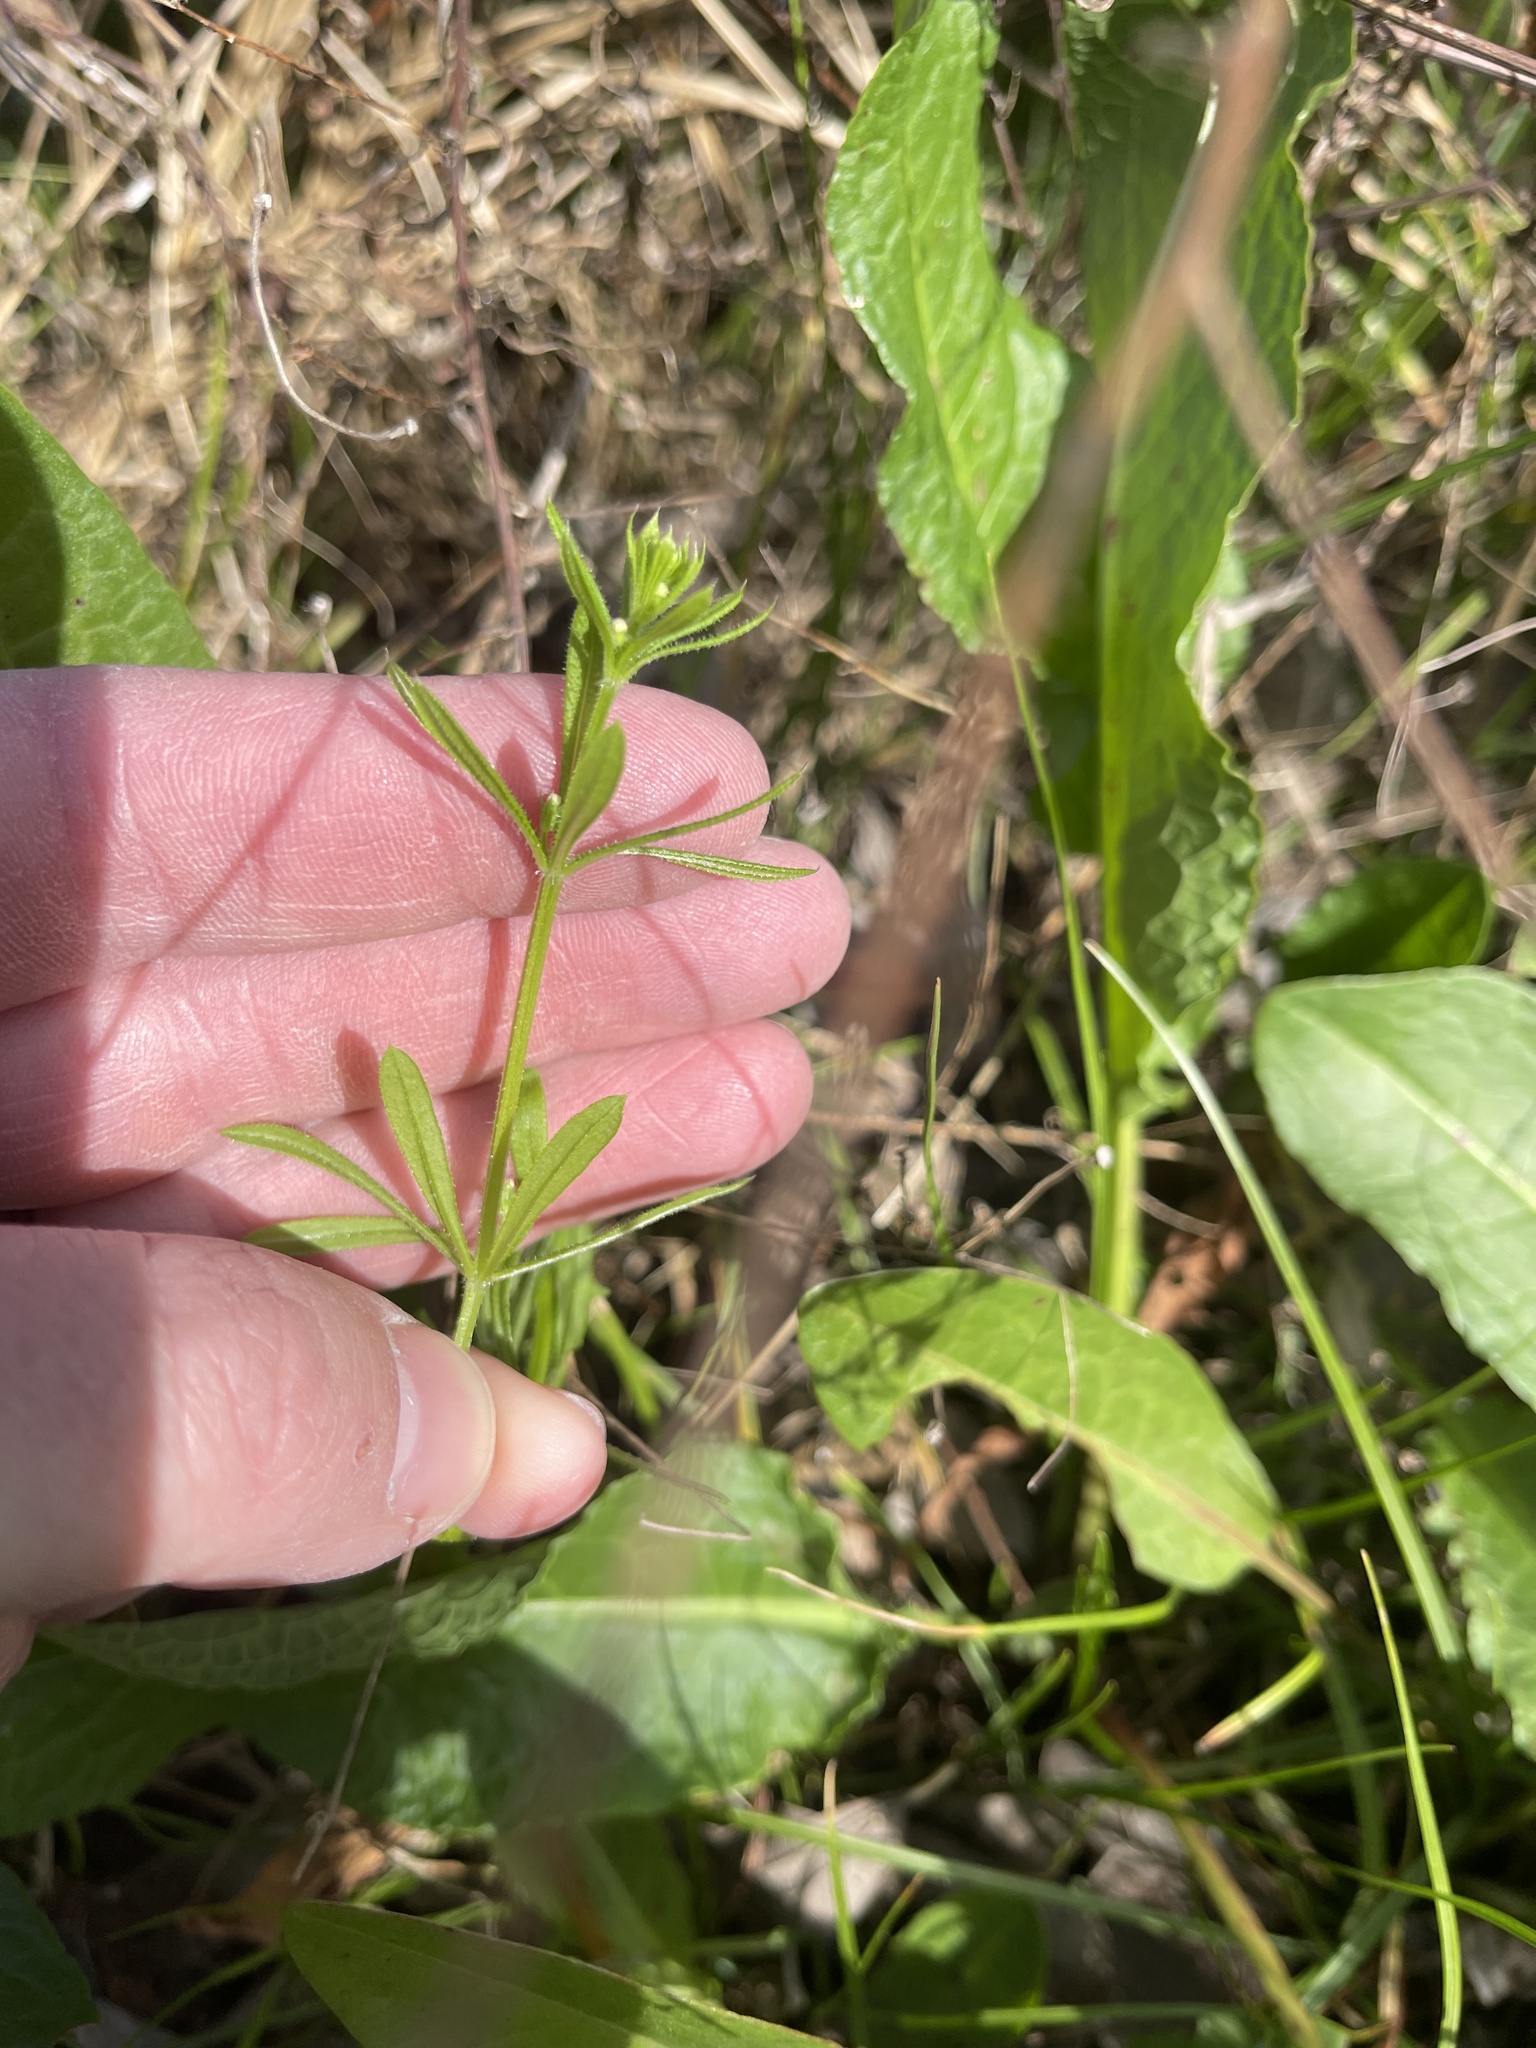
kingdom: Plantae
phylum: Tracheophyta
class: Magnoliopsida
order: Gentianales
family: Rubiaceae
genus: Galium
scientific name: Galium aparine
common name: Cleavers
